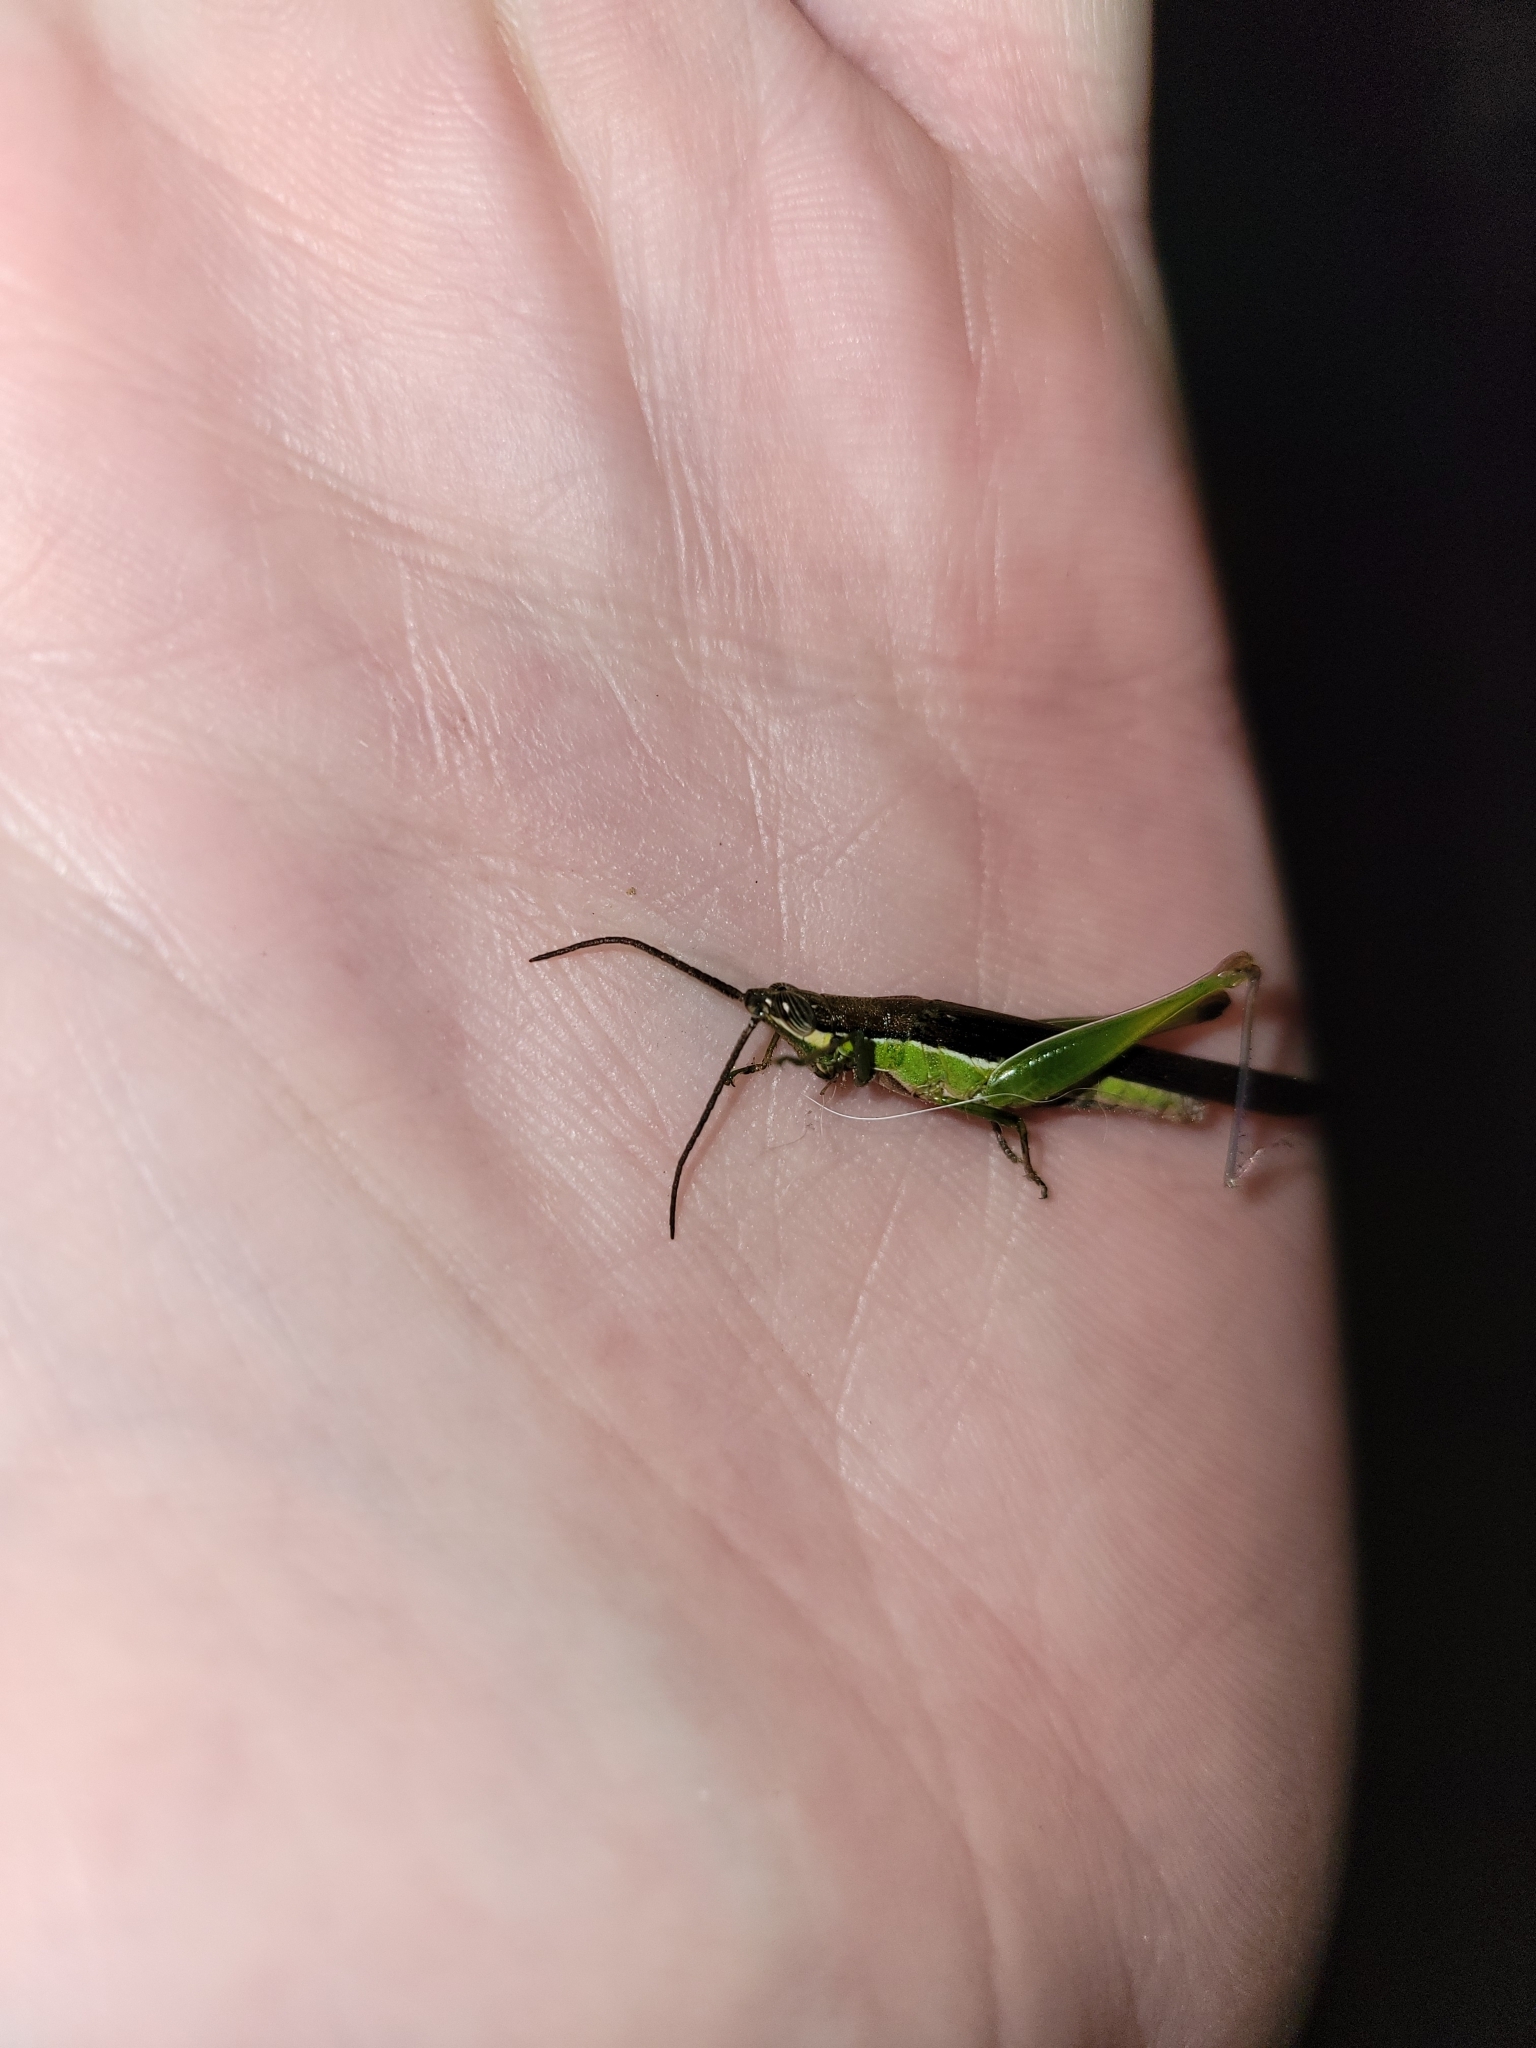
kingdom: Animalia
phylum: Arthropoda
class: Insecta
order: Orthoptera
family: Acrididae
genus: Stenopola
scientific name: Stenopola dorsalis
